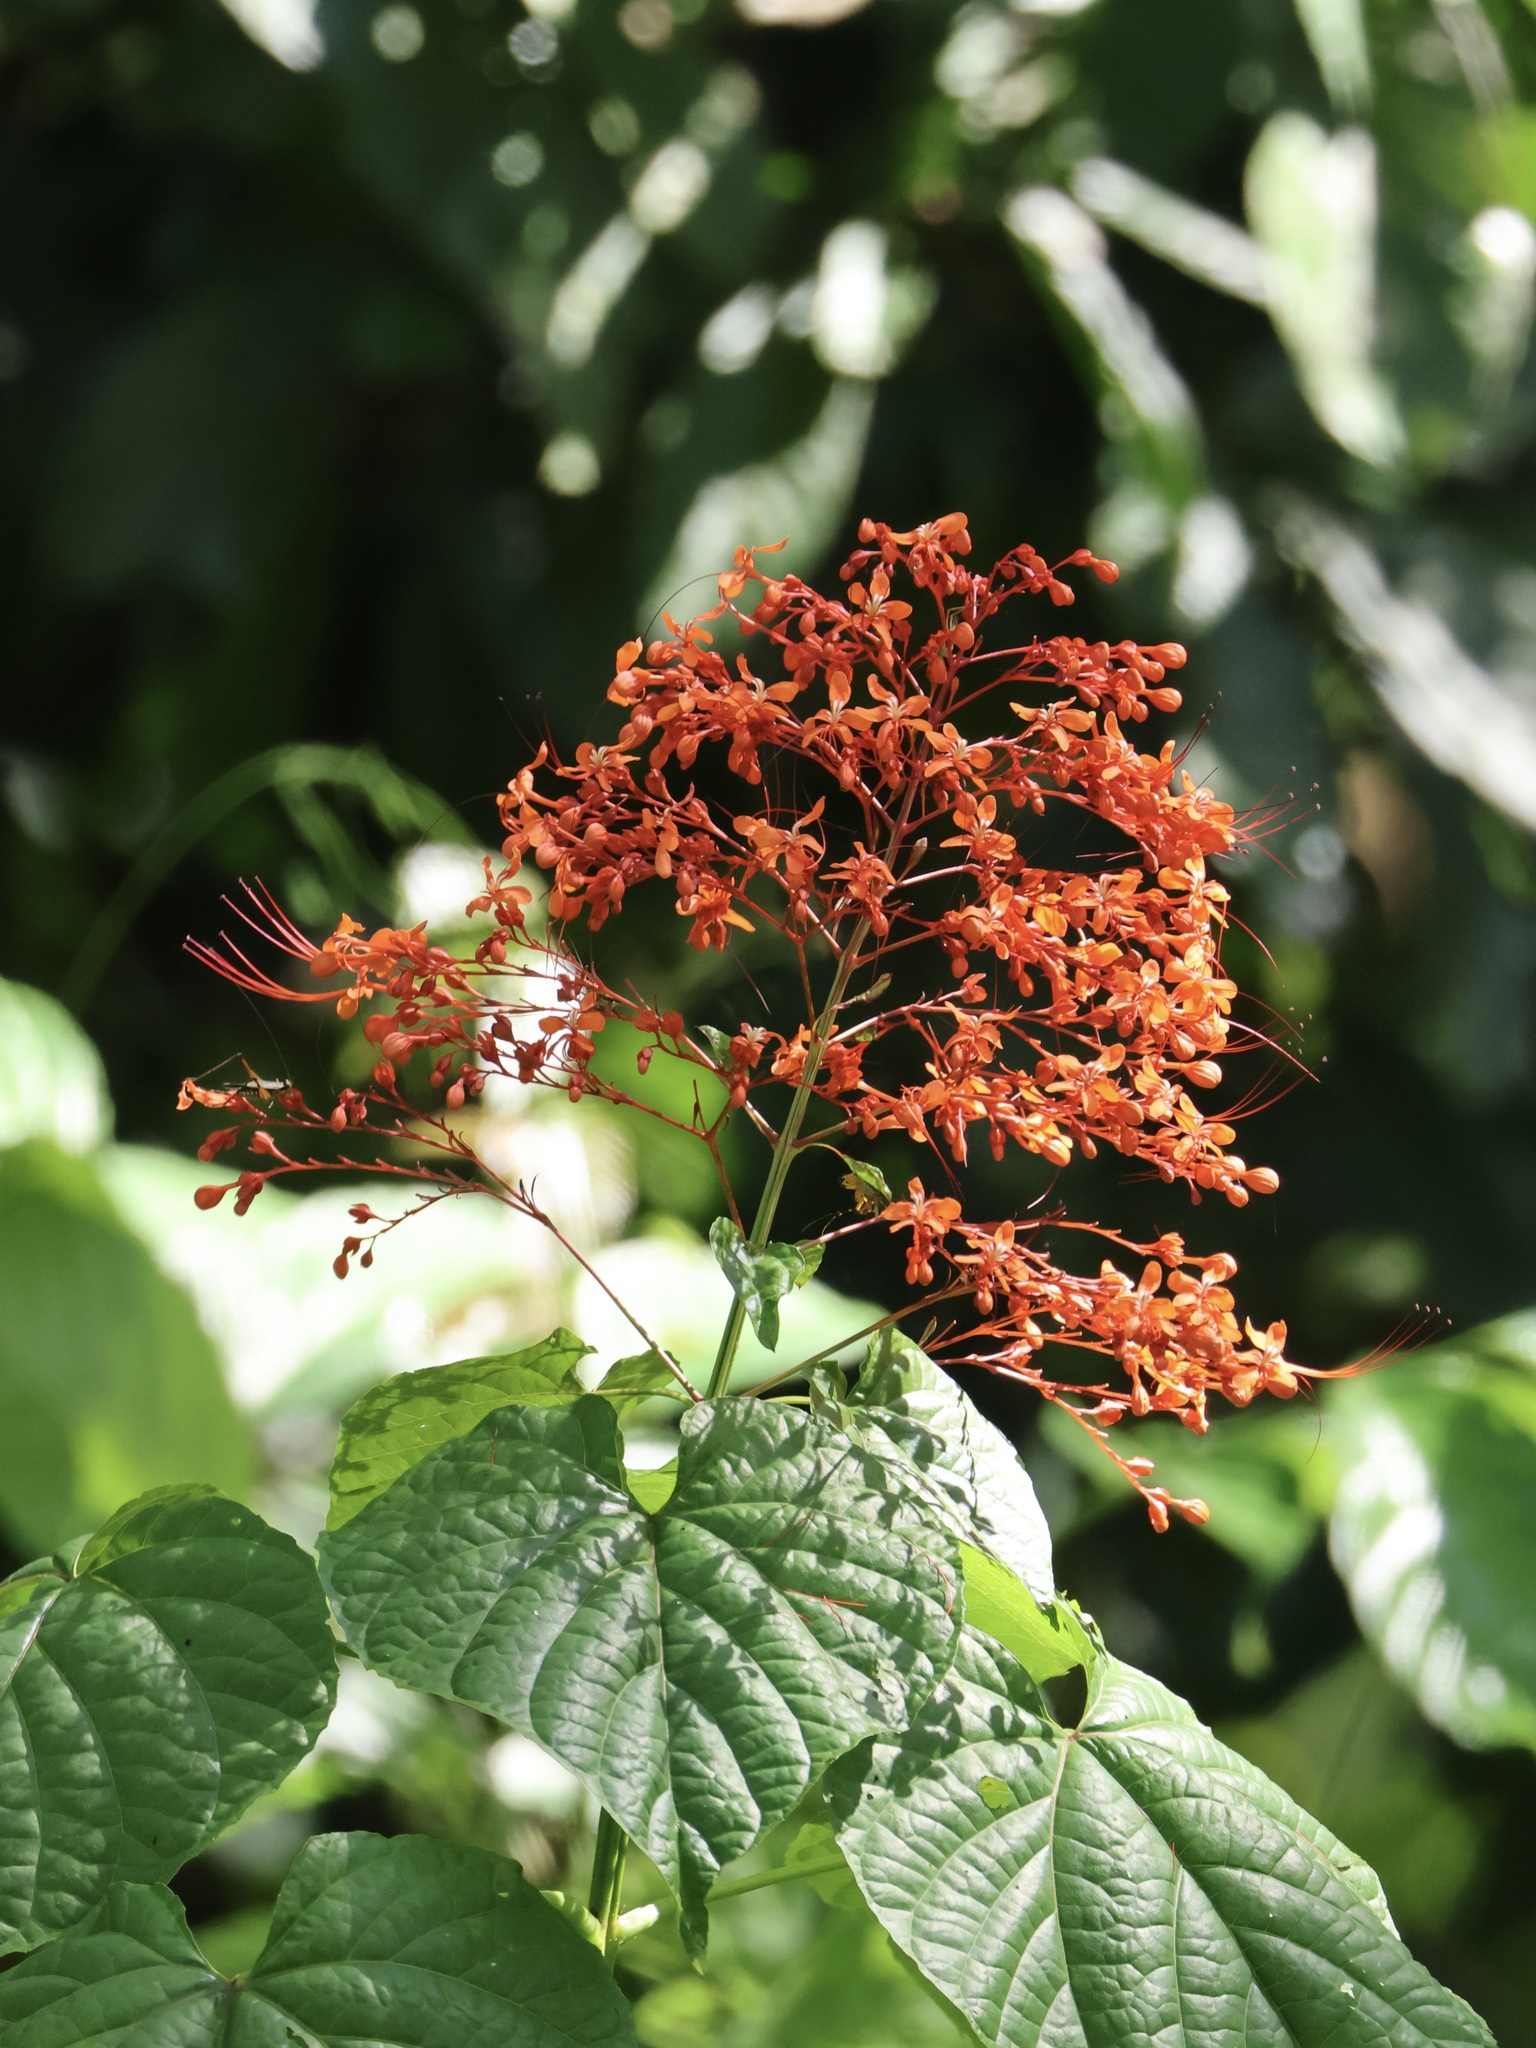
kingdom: Plantae
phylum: Tracheophyta
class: Magnoliopsida
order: Lamiales
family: Lamiaceae
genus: Clerodendrum
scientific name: Clerodendrum paniculatum
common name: Pagoda-flower
